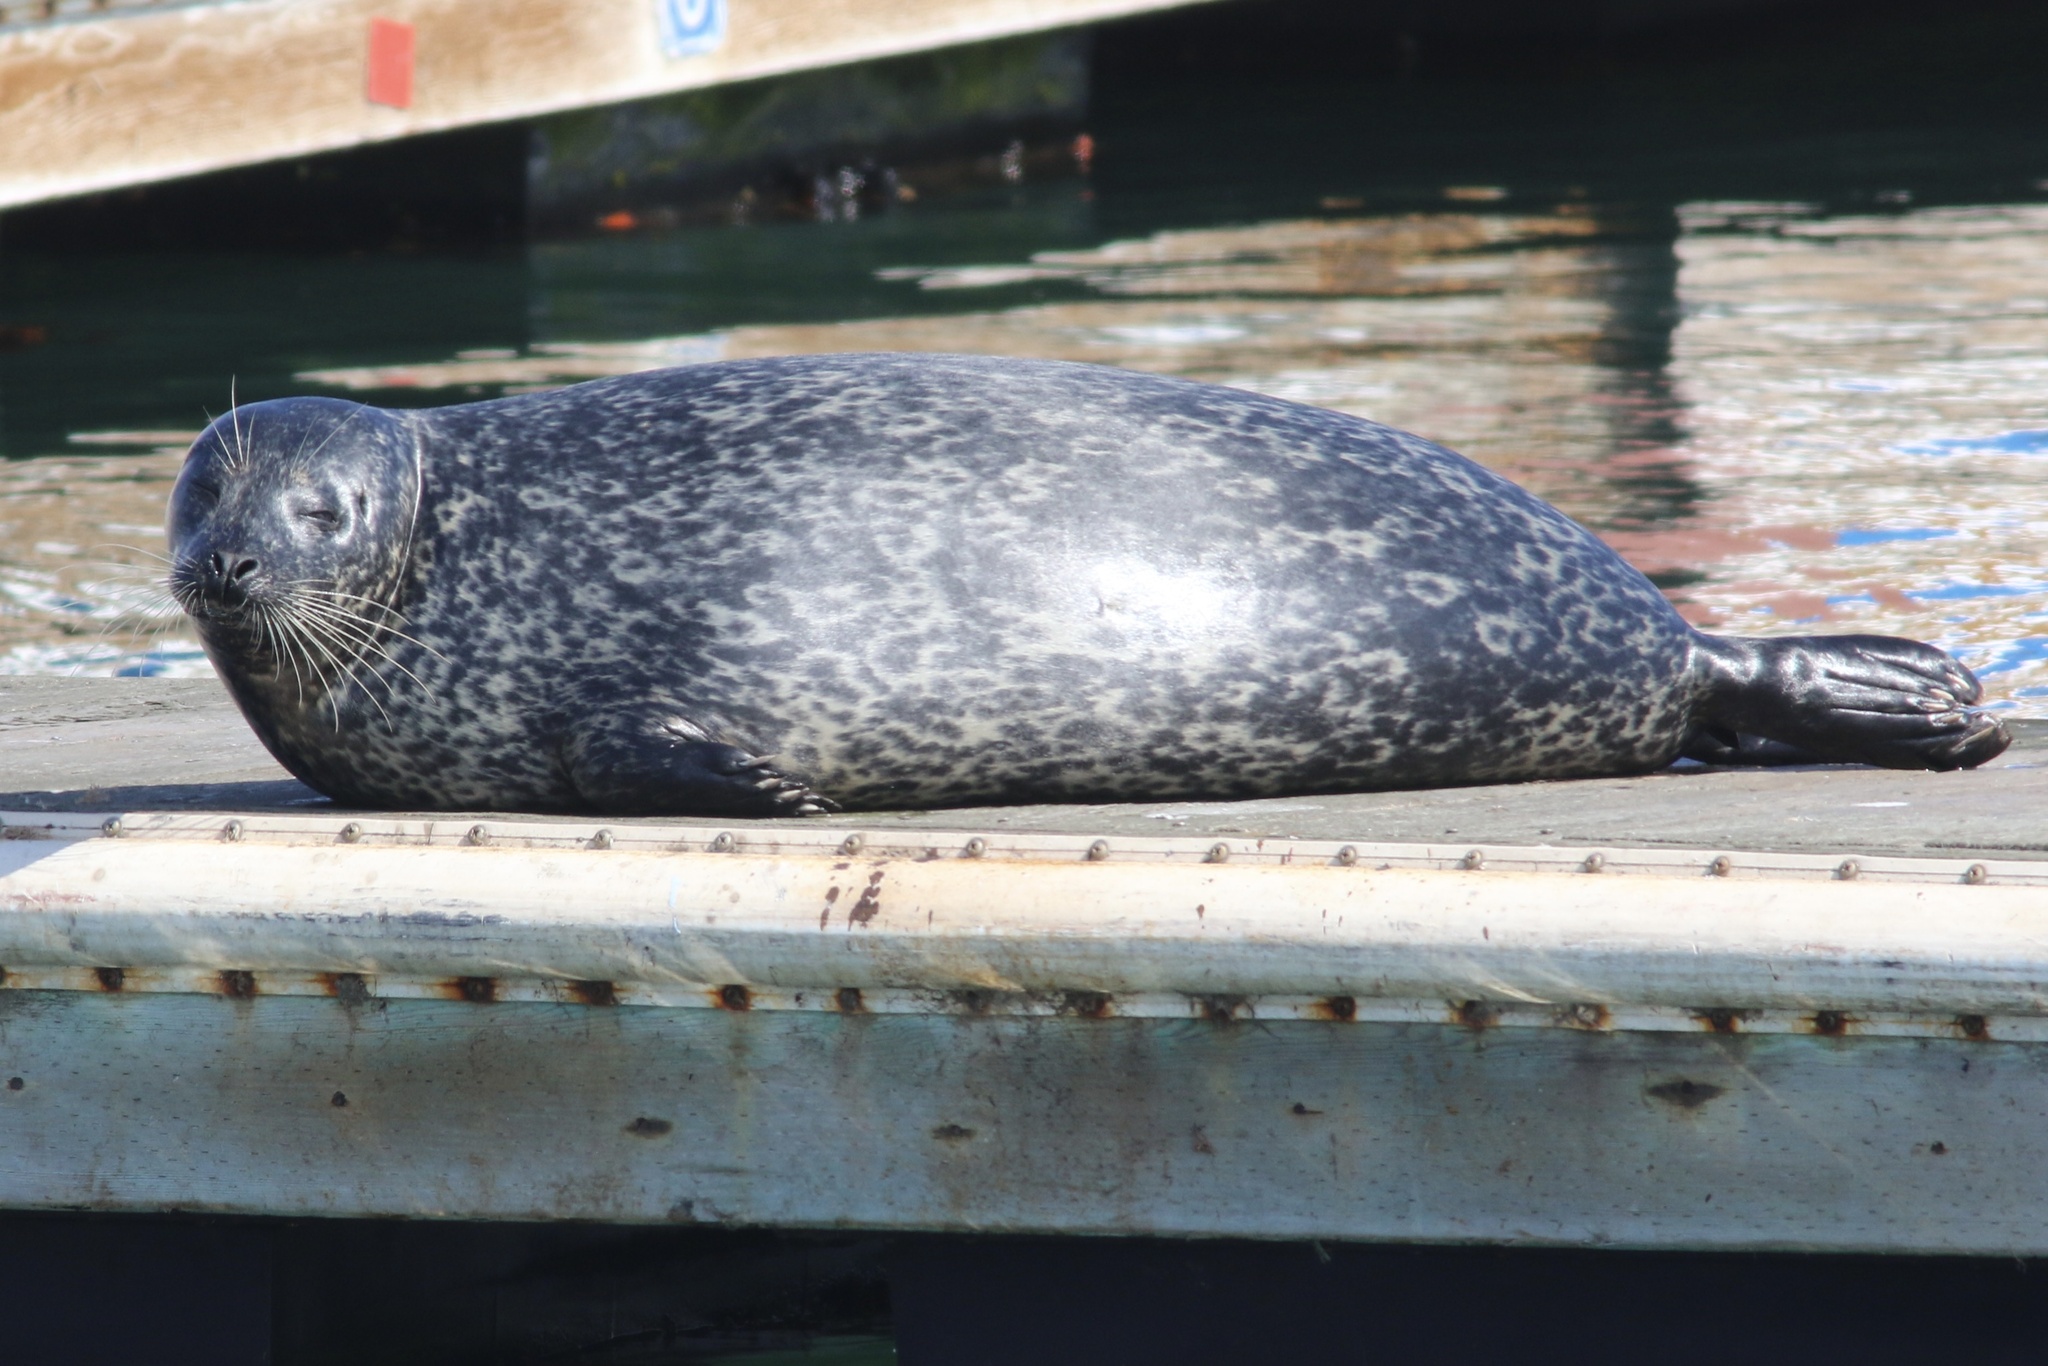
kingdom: Animalia
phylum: Chordata
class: Mammalia
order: Carnivora
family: Phocidae
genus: Phoca
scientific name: Phoca vitulina
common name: Harbor seal
